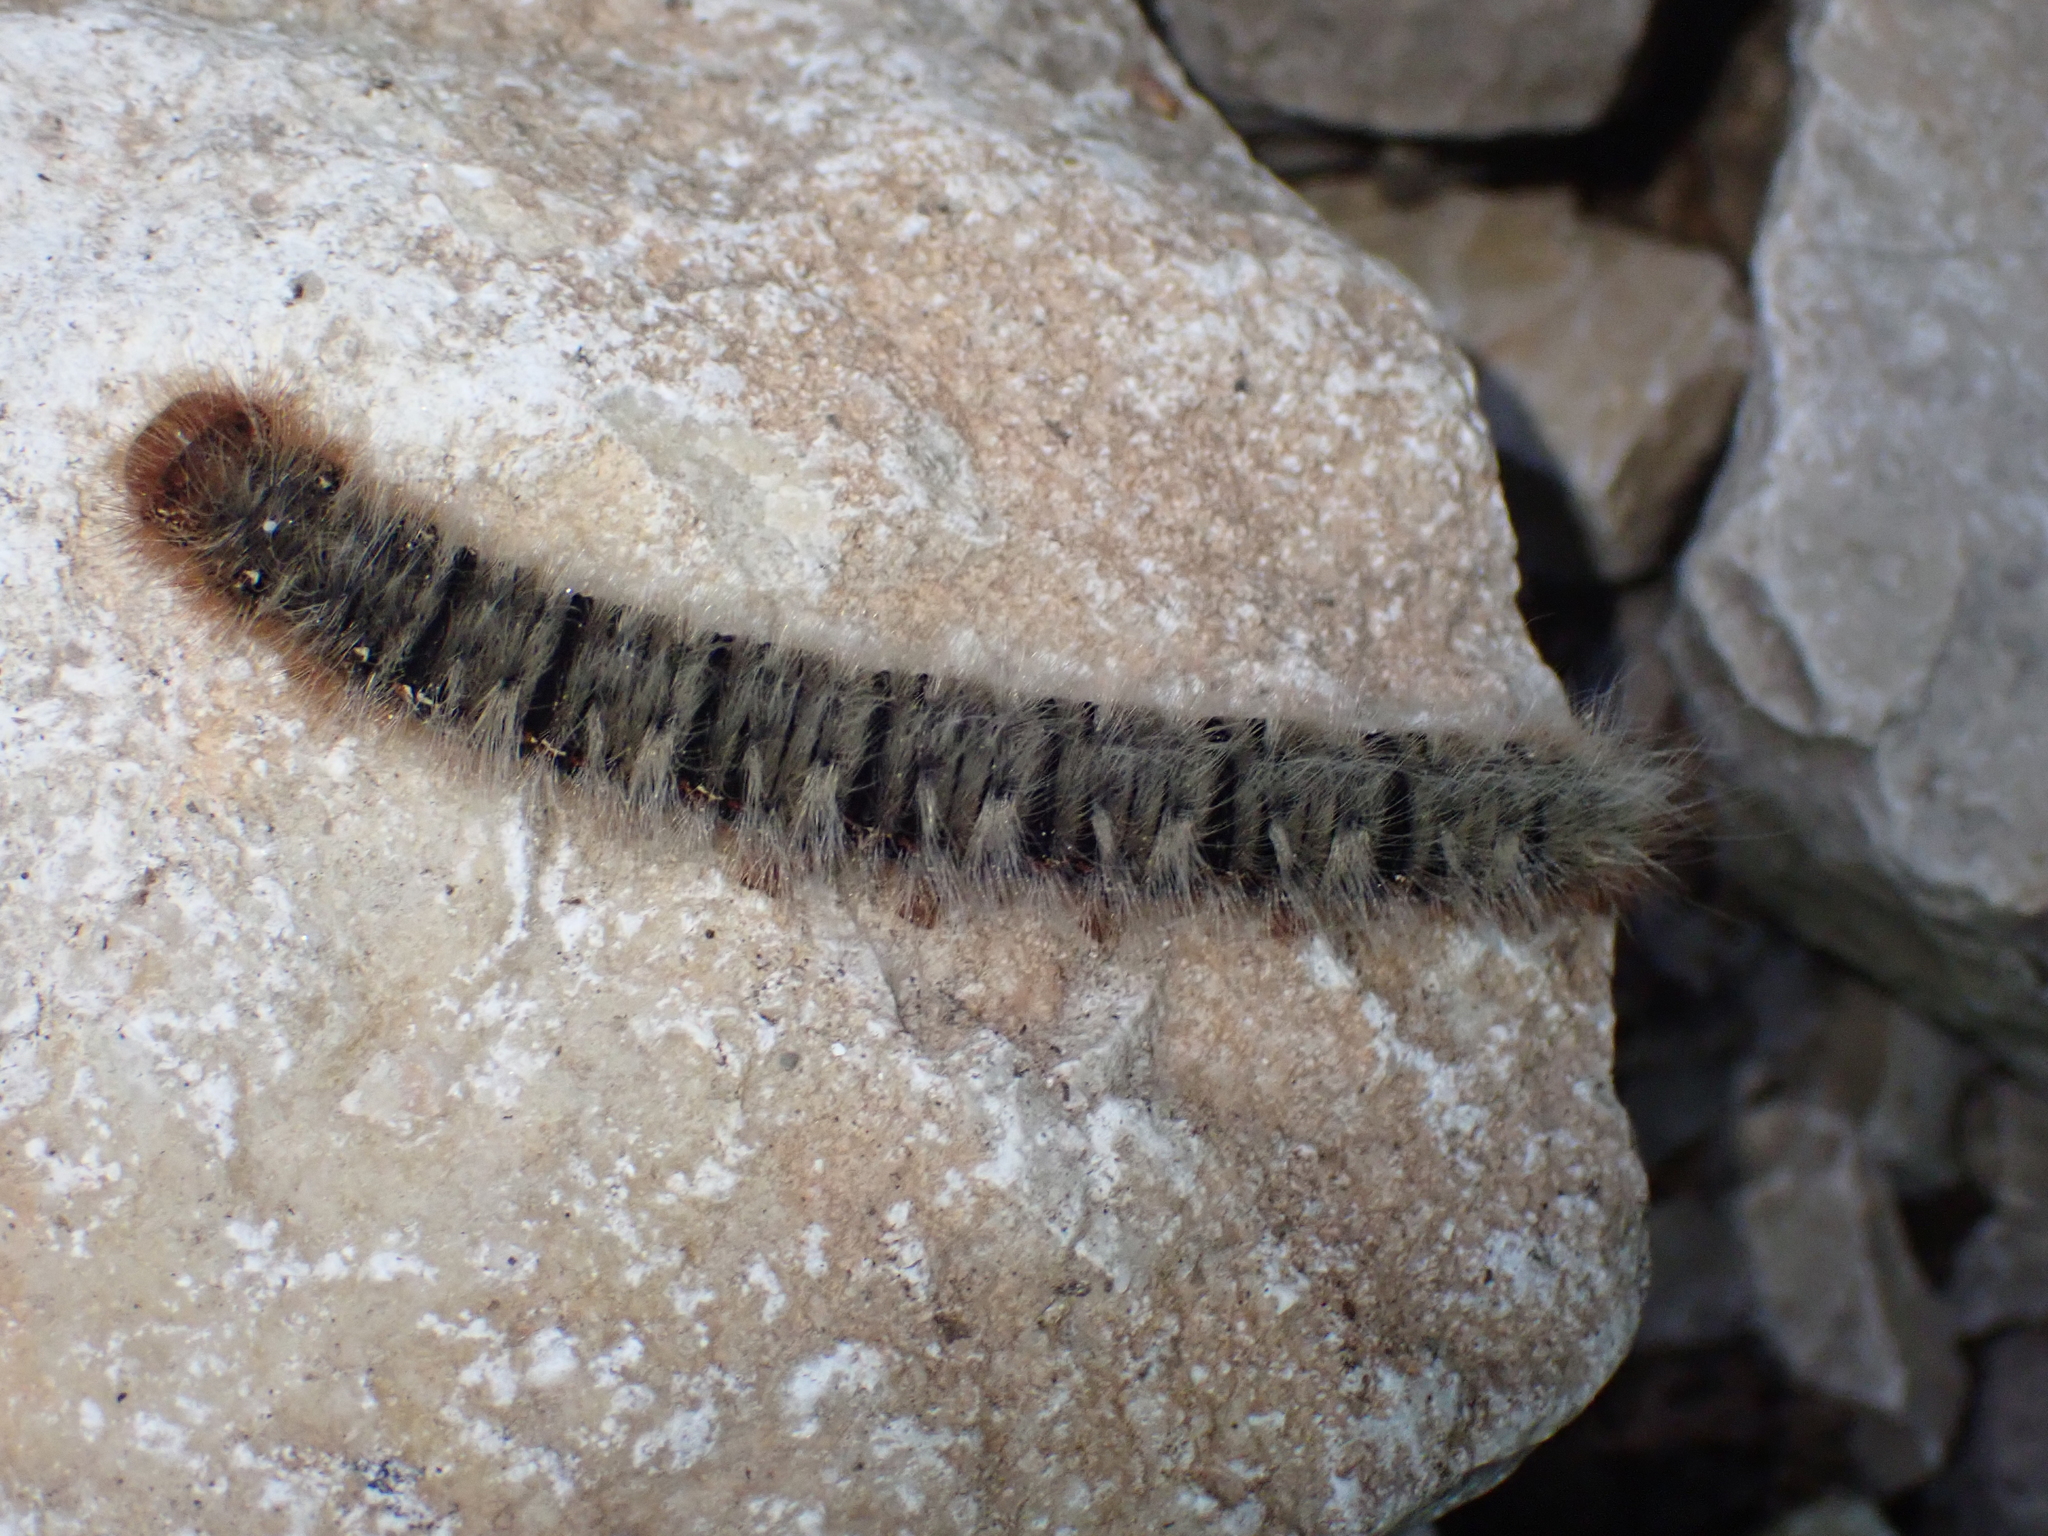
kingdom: Animalia
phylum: Arthropoda
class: Insecta
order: Lepidoptera
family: Lasiocampidae
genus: Lasiocampa
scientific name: Lasiocampa quercus
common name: Oak eggar
